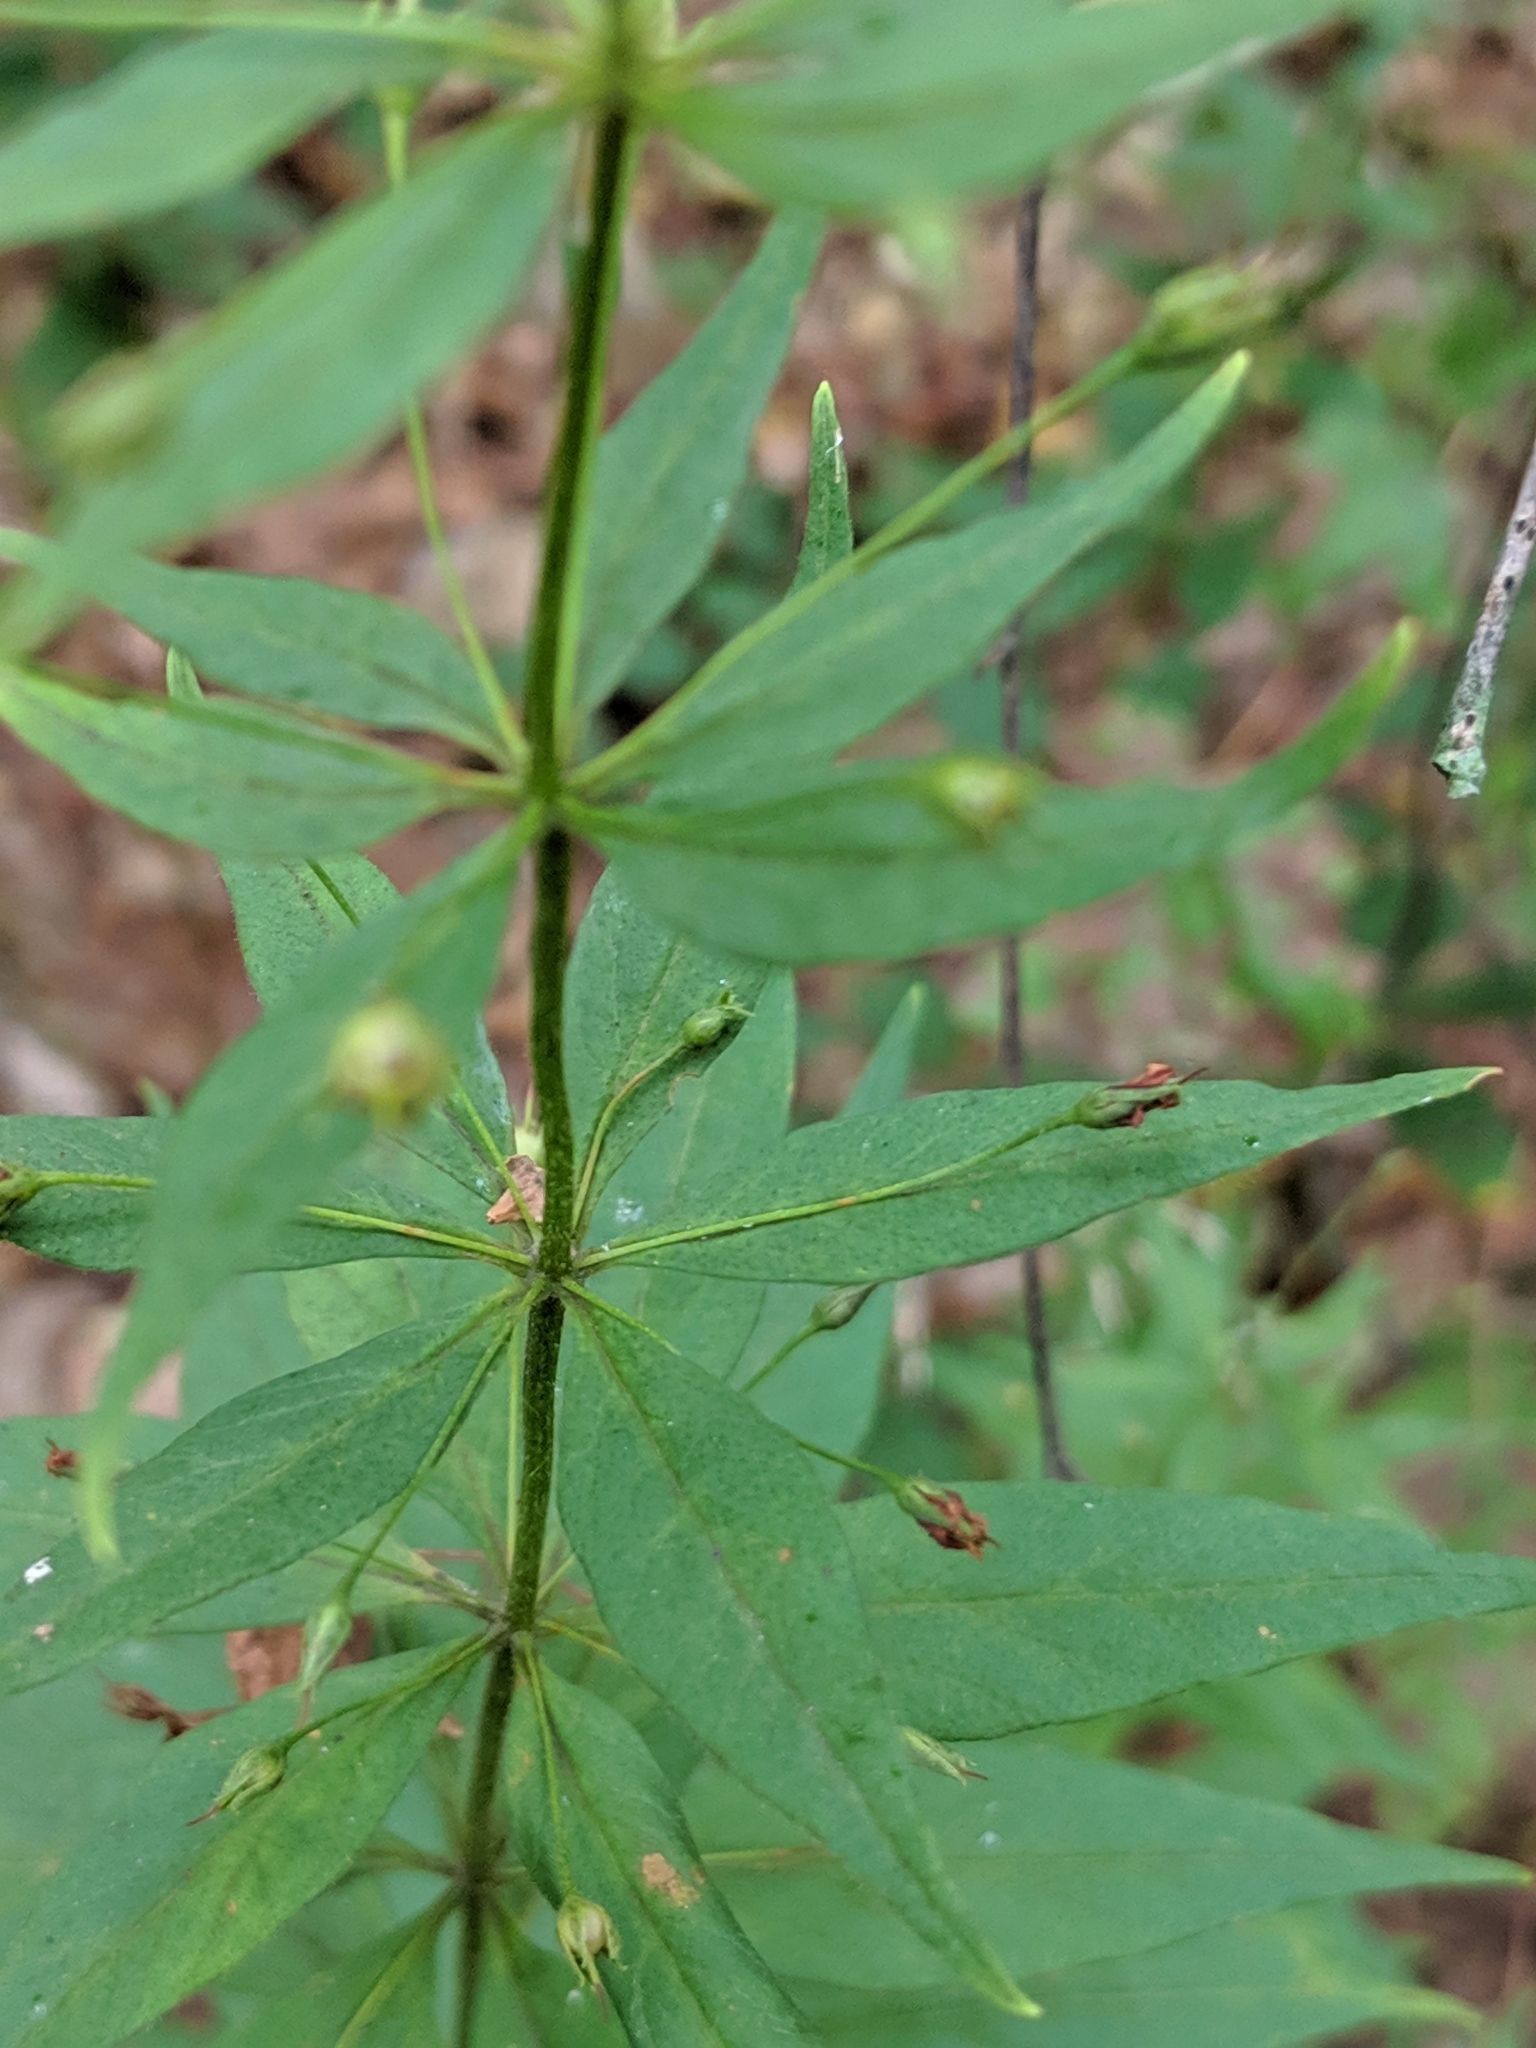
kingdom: Plantae
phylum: Tracheophyta
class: Magnoliopsida
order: Ericales
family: Primulaceae
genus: Lysimachia
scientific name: Lysimachia quadrifolia
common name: Whorled loosestrife
